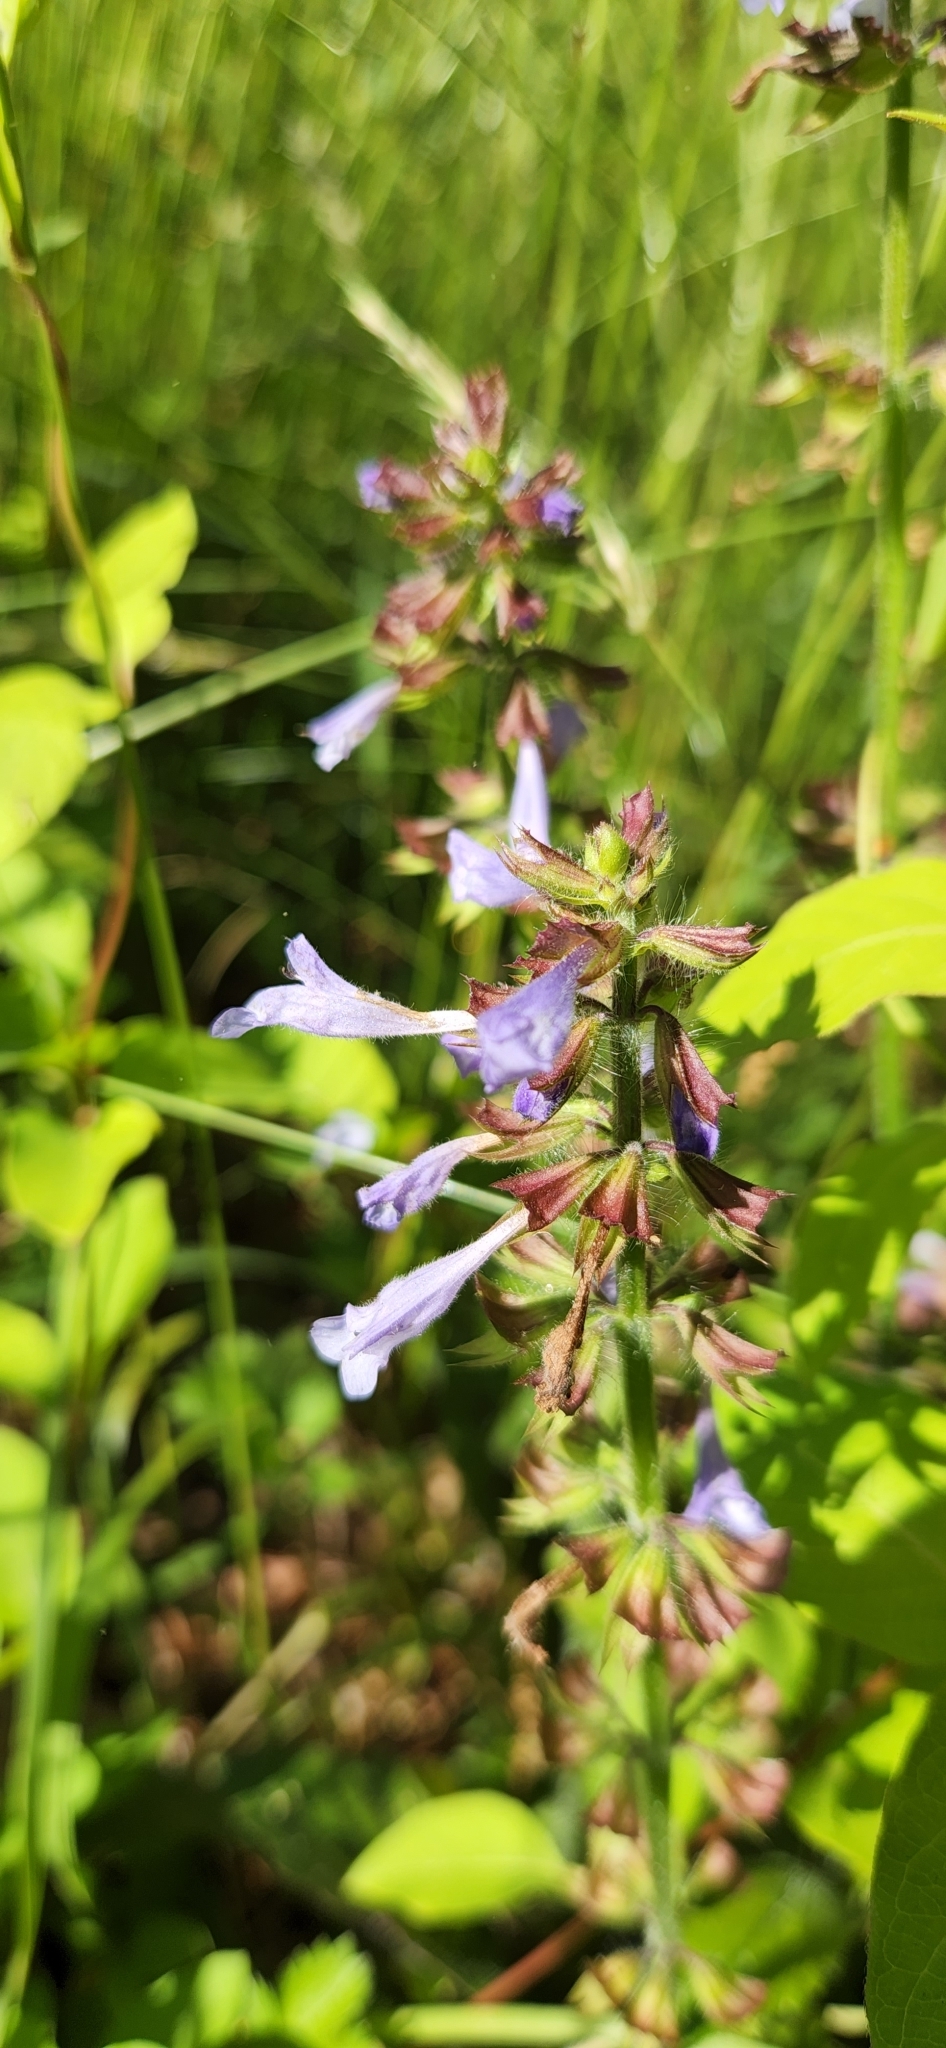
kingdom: Plantae
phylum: Tracheophyta
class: Magnoliopsida
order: Lamiales
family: Lamiaceae
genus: Salvia
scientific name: Salvia lyrata
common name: Cancerweed
